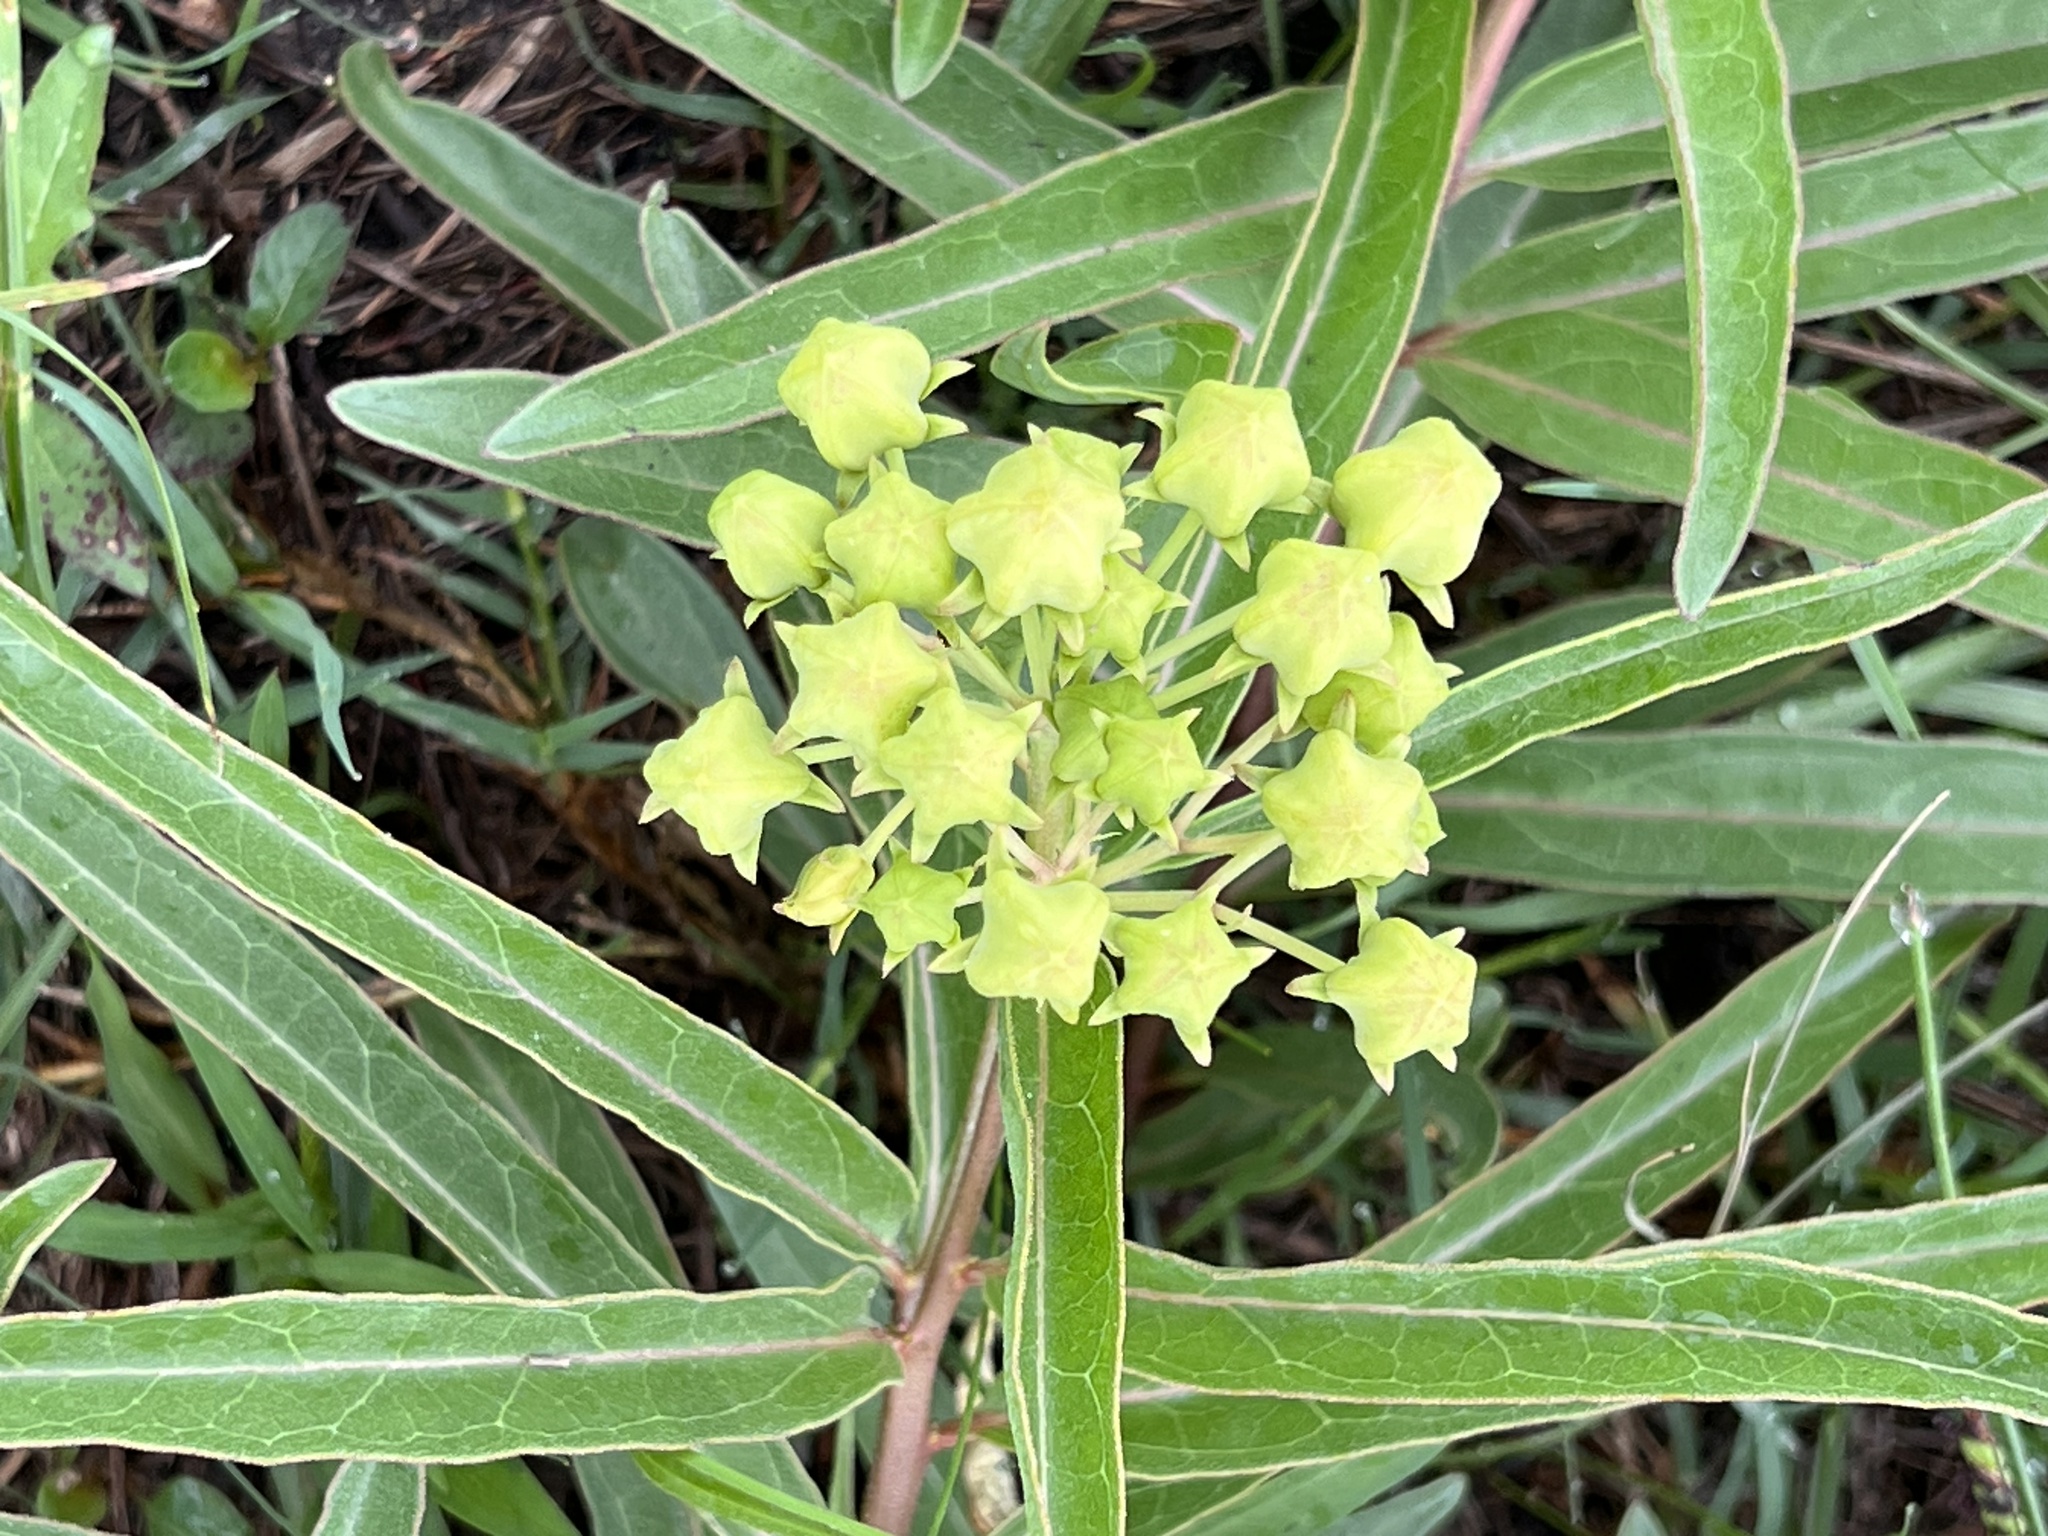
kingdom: Plantae
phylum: Tracheophyta
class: Magnoliopsida
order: Gentianales
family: Apocynaceae
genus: Asclepias
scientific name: Asclepias asperula
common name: Antelope horns
